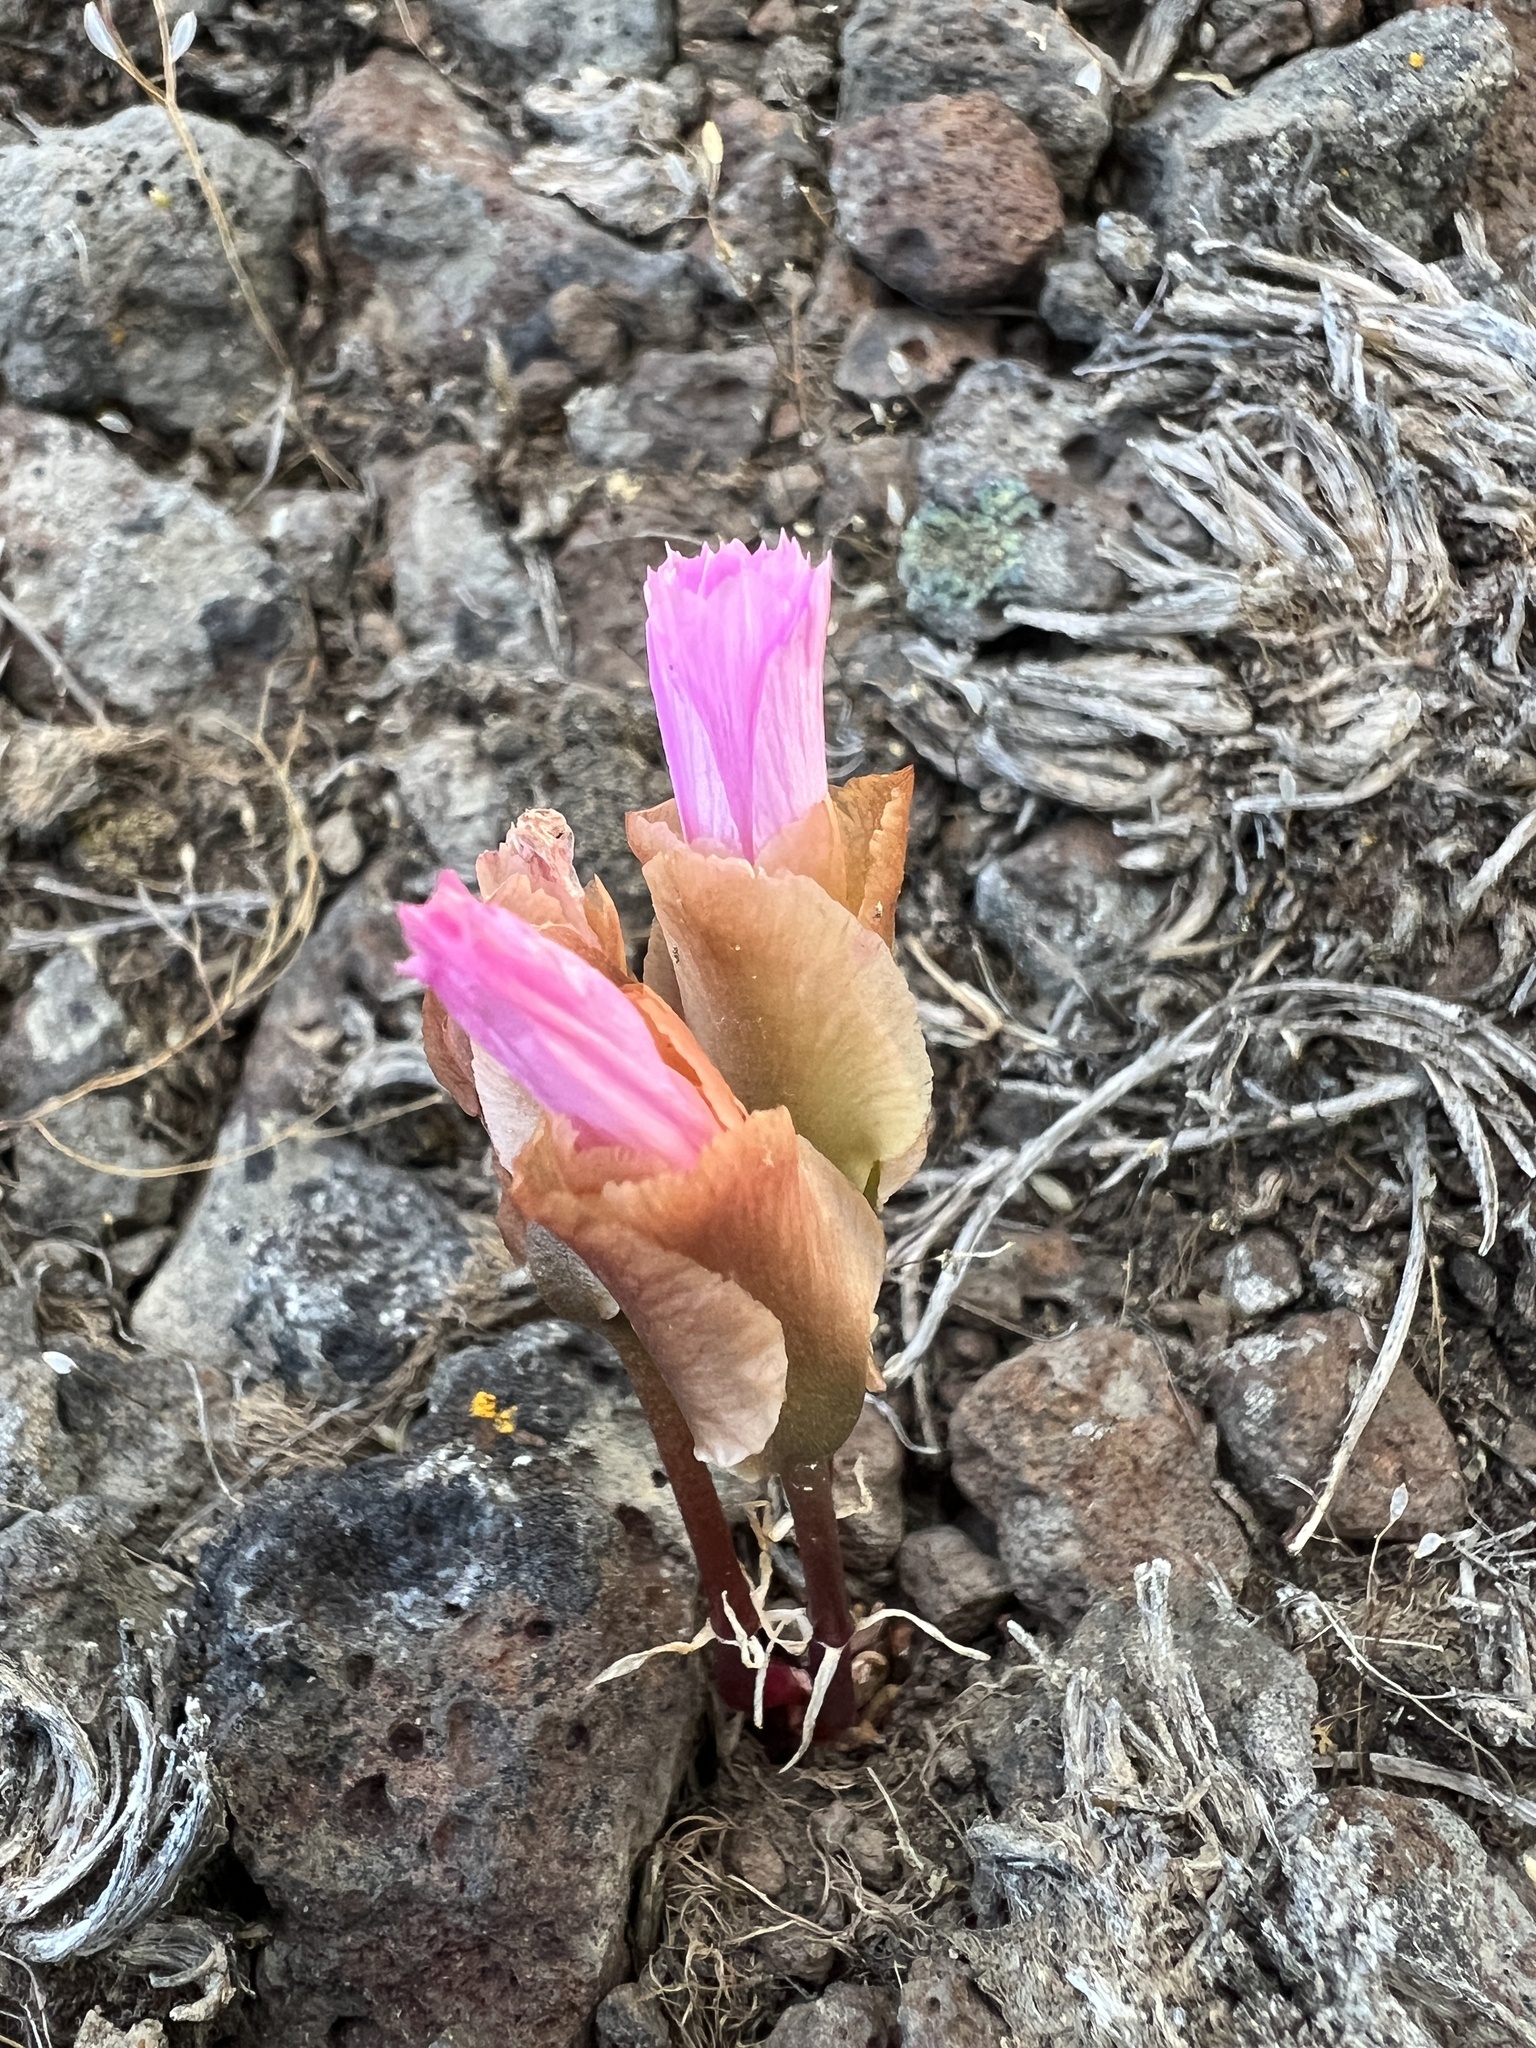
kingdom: Plantae
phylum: Tracheophyta
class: Magnoliopsida
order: Caryophyllales
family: Montiaceae
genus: Lewisia
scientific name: Lewisia rediviva
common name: Bitter-root
